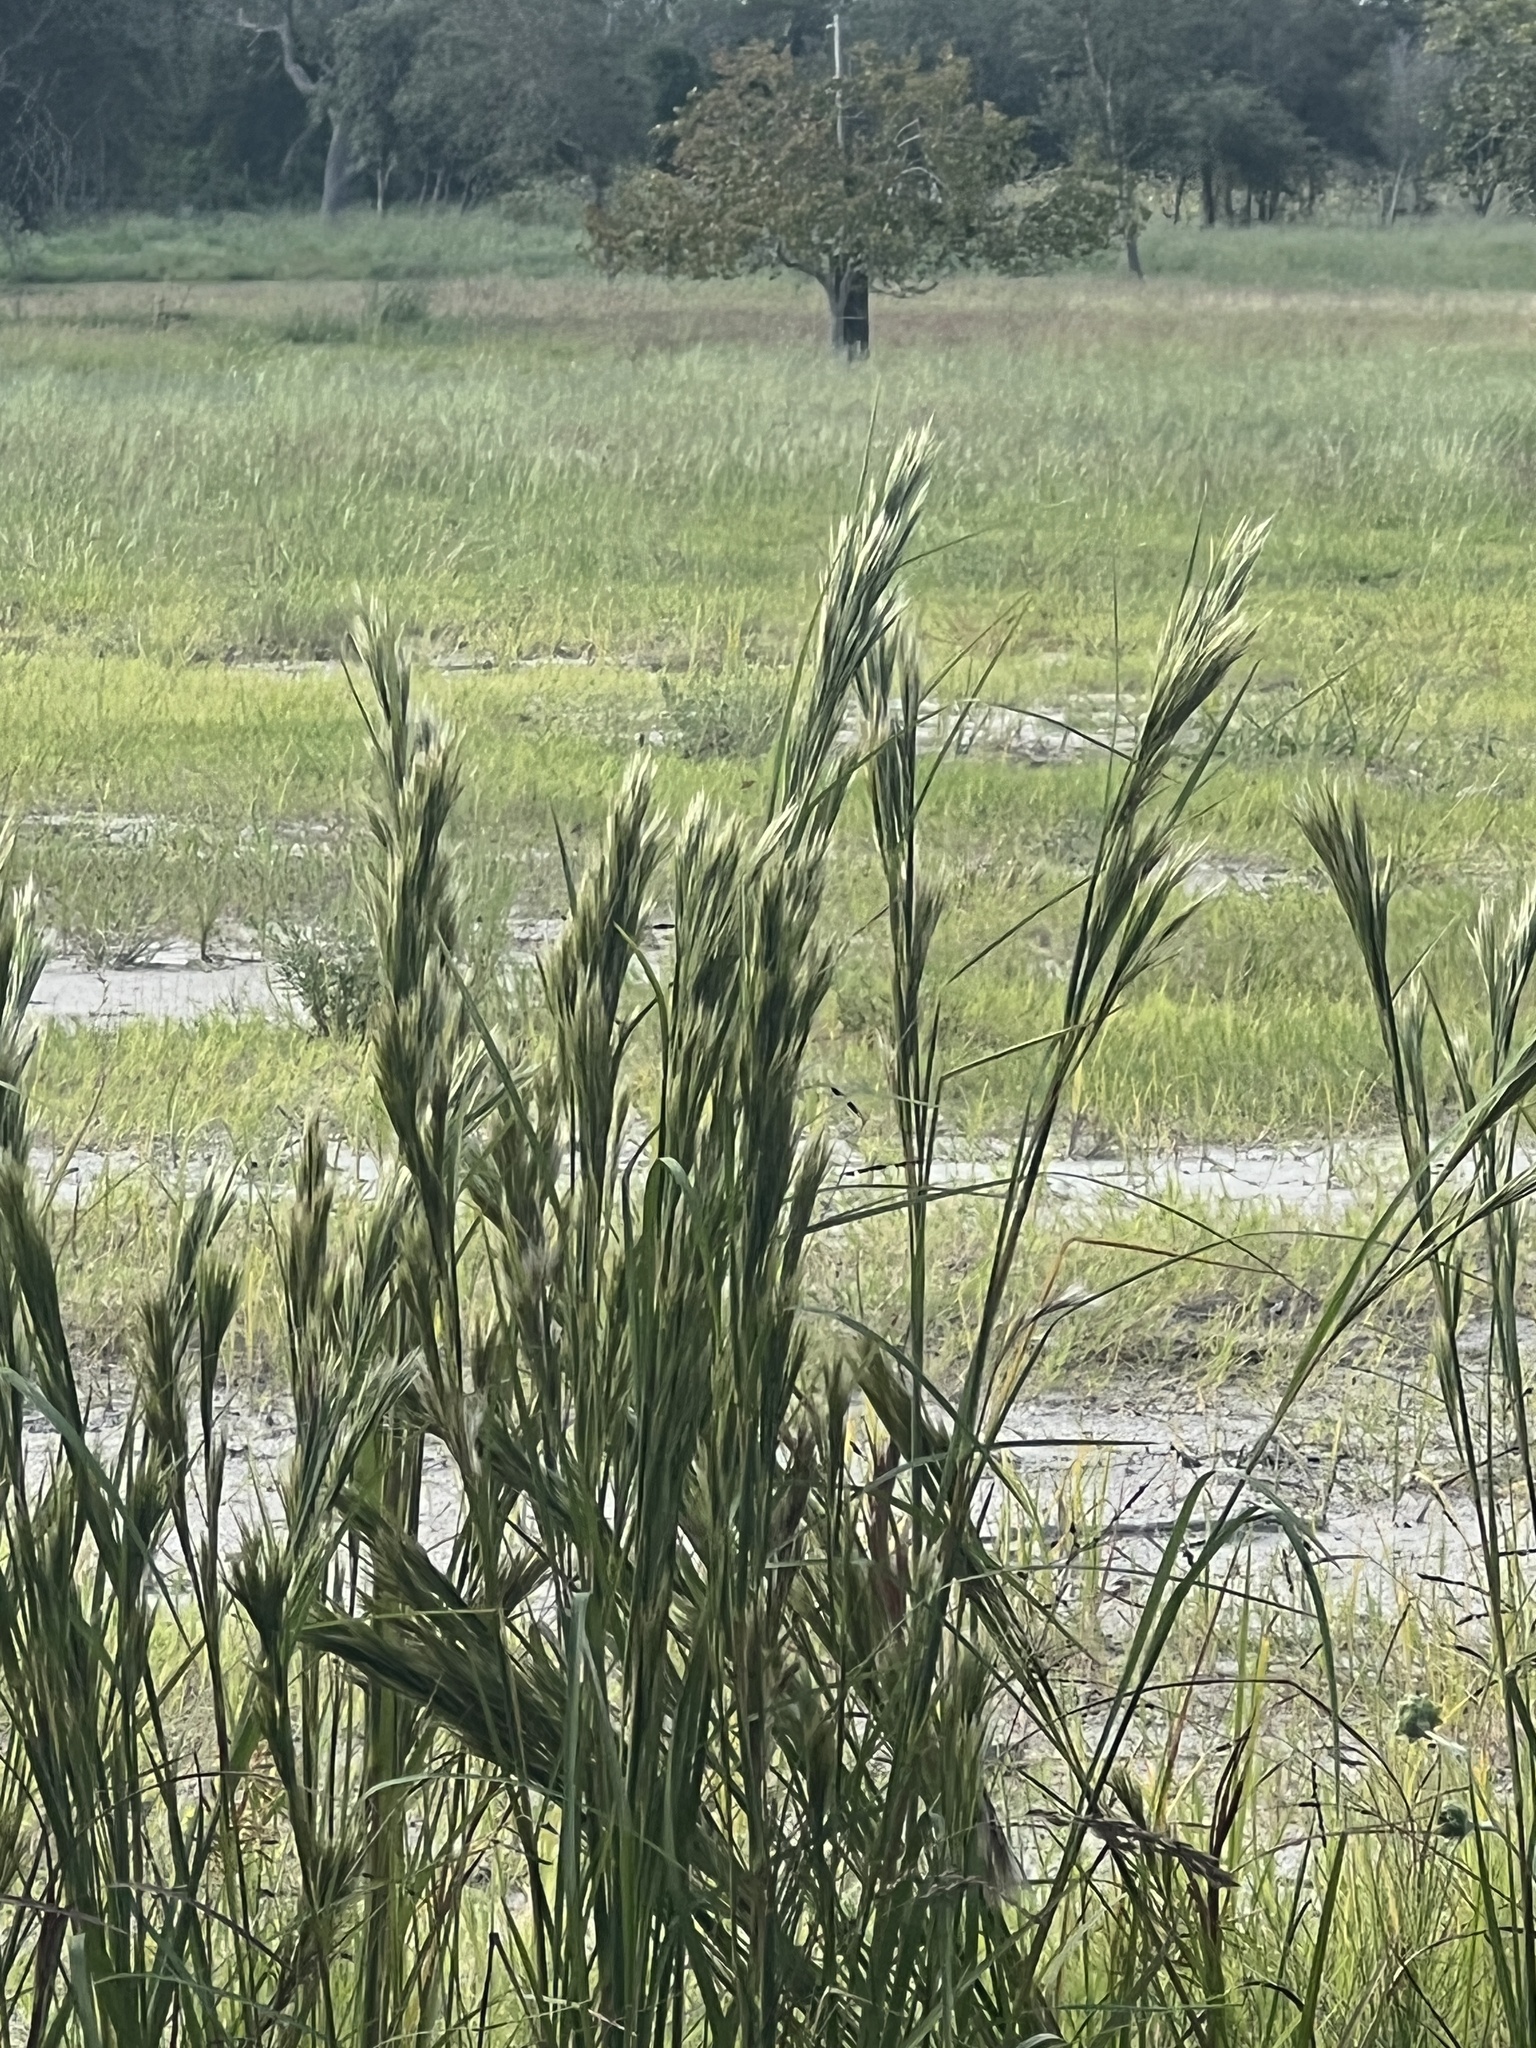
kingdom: Plantae
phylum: Tracheophyta
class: Liliopsida
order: Poales
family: Poaceae
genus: Andropogon
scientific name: Andropogon tenuispatheus
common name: Bushy bluestem
